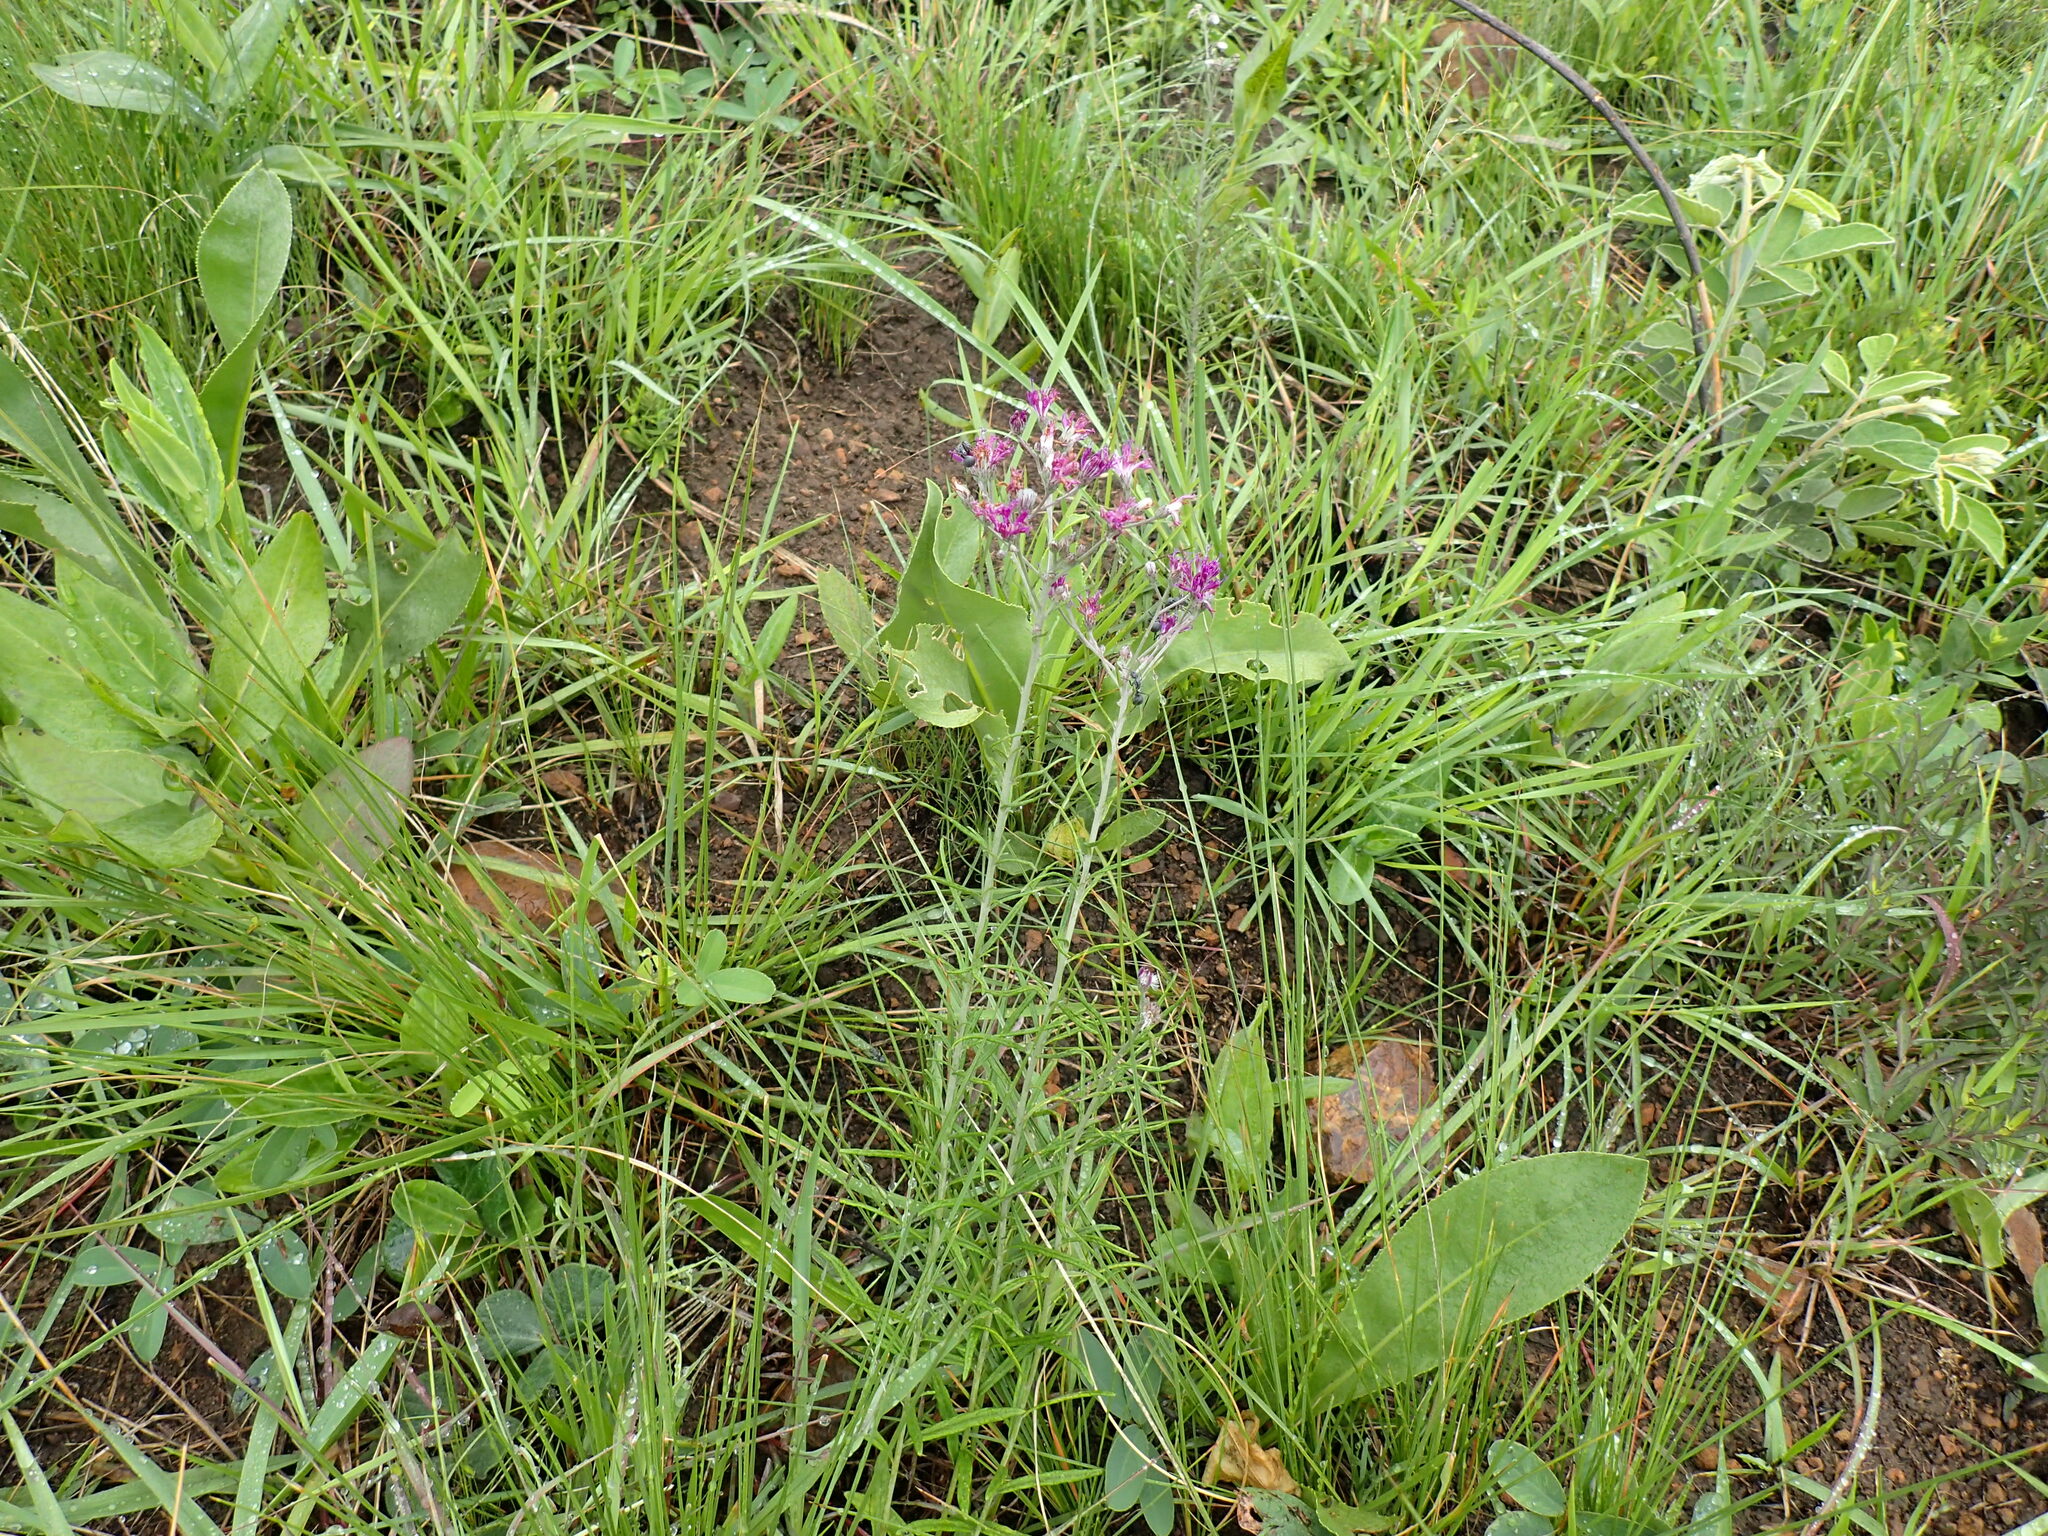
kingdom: Plantae
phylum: Tracheophyta
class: Magnoliopsida
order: Asterales
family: Asteraceae
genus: Hilliardiella
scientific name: Hilliardiella capensis
